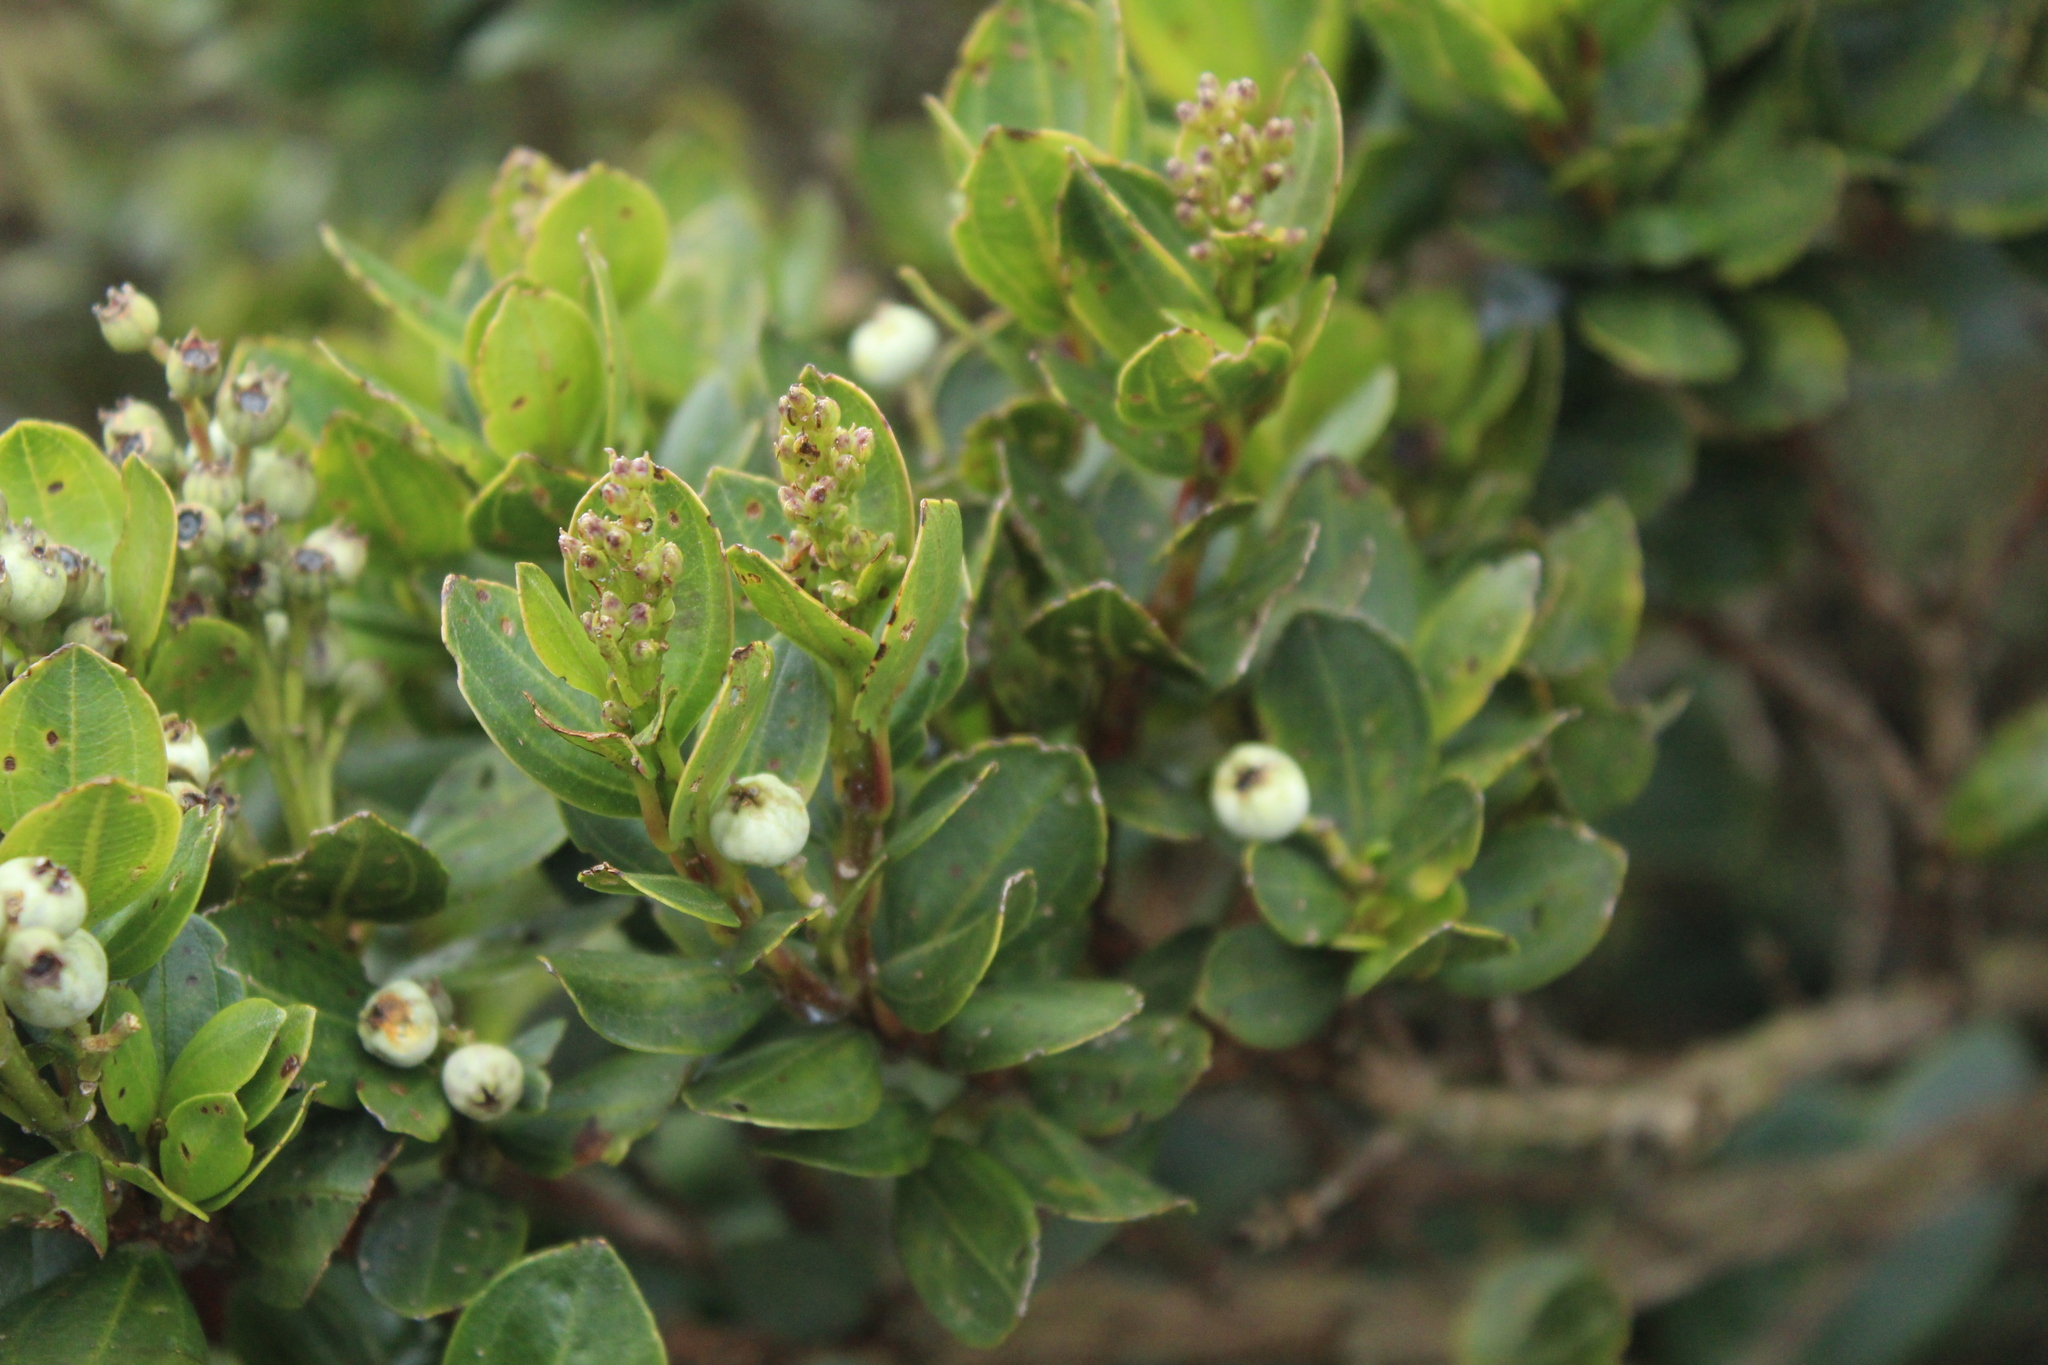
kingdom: Plantae
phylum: Tracheophyta
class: Magnoliopsida
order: Myrtales
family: Melastomataceae
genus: Miconia
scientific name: Miconia ligustrina
